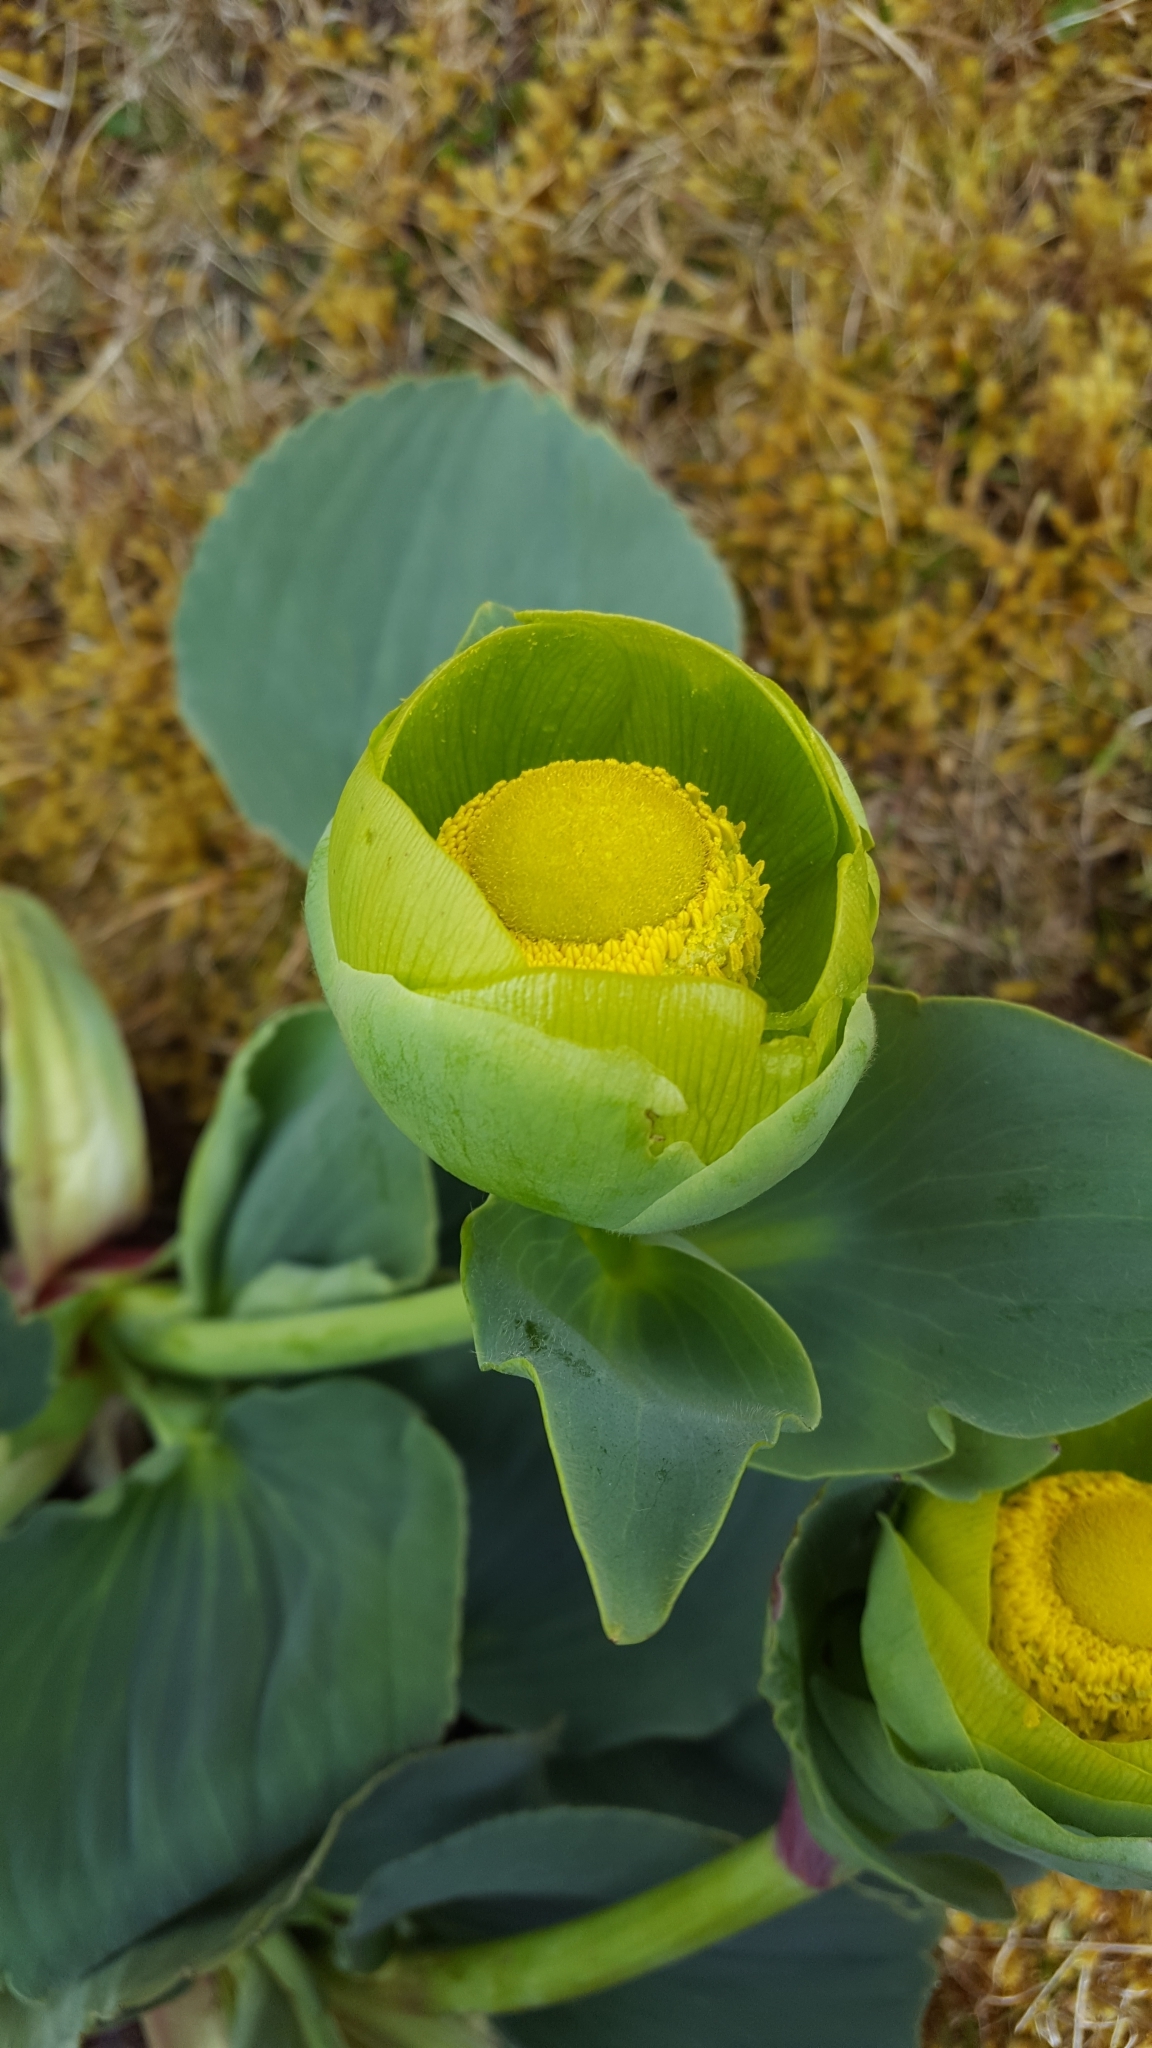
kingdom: Plantae
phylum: Tracheophyta
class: Magnoliopsida
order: Ranunculales
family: Ranunculaceae
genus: Krapfia
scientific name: Krapfia macropetala
